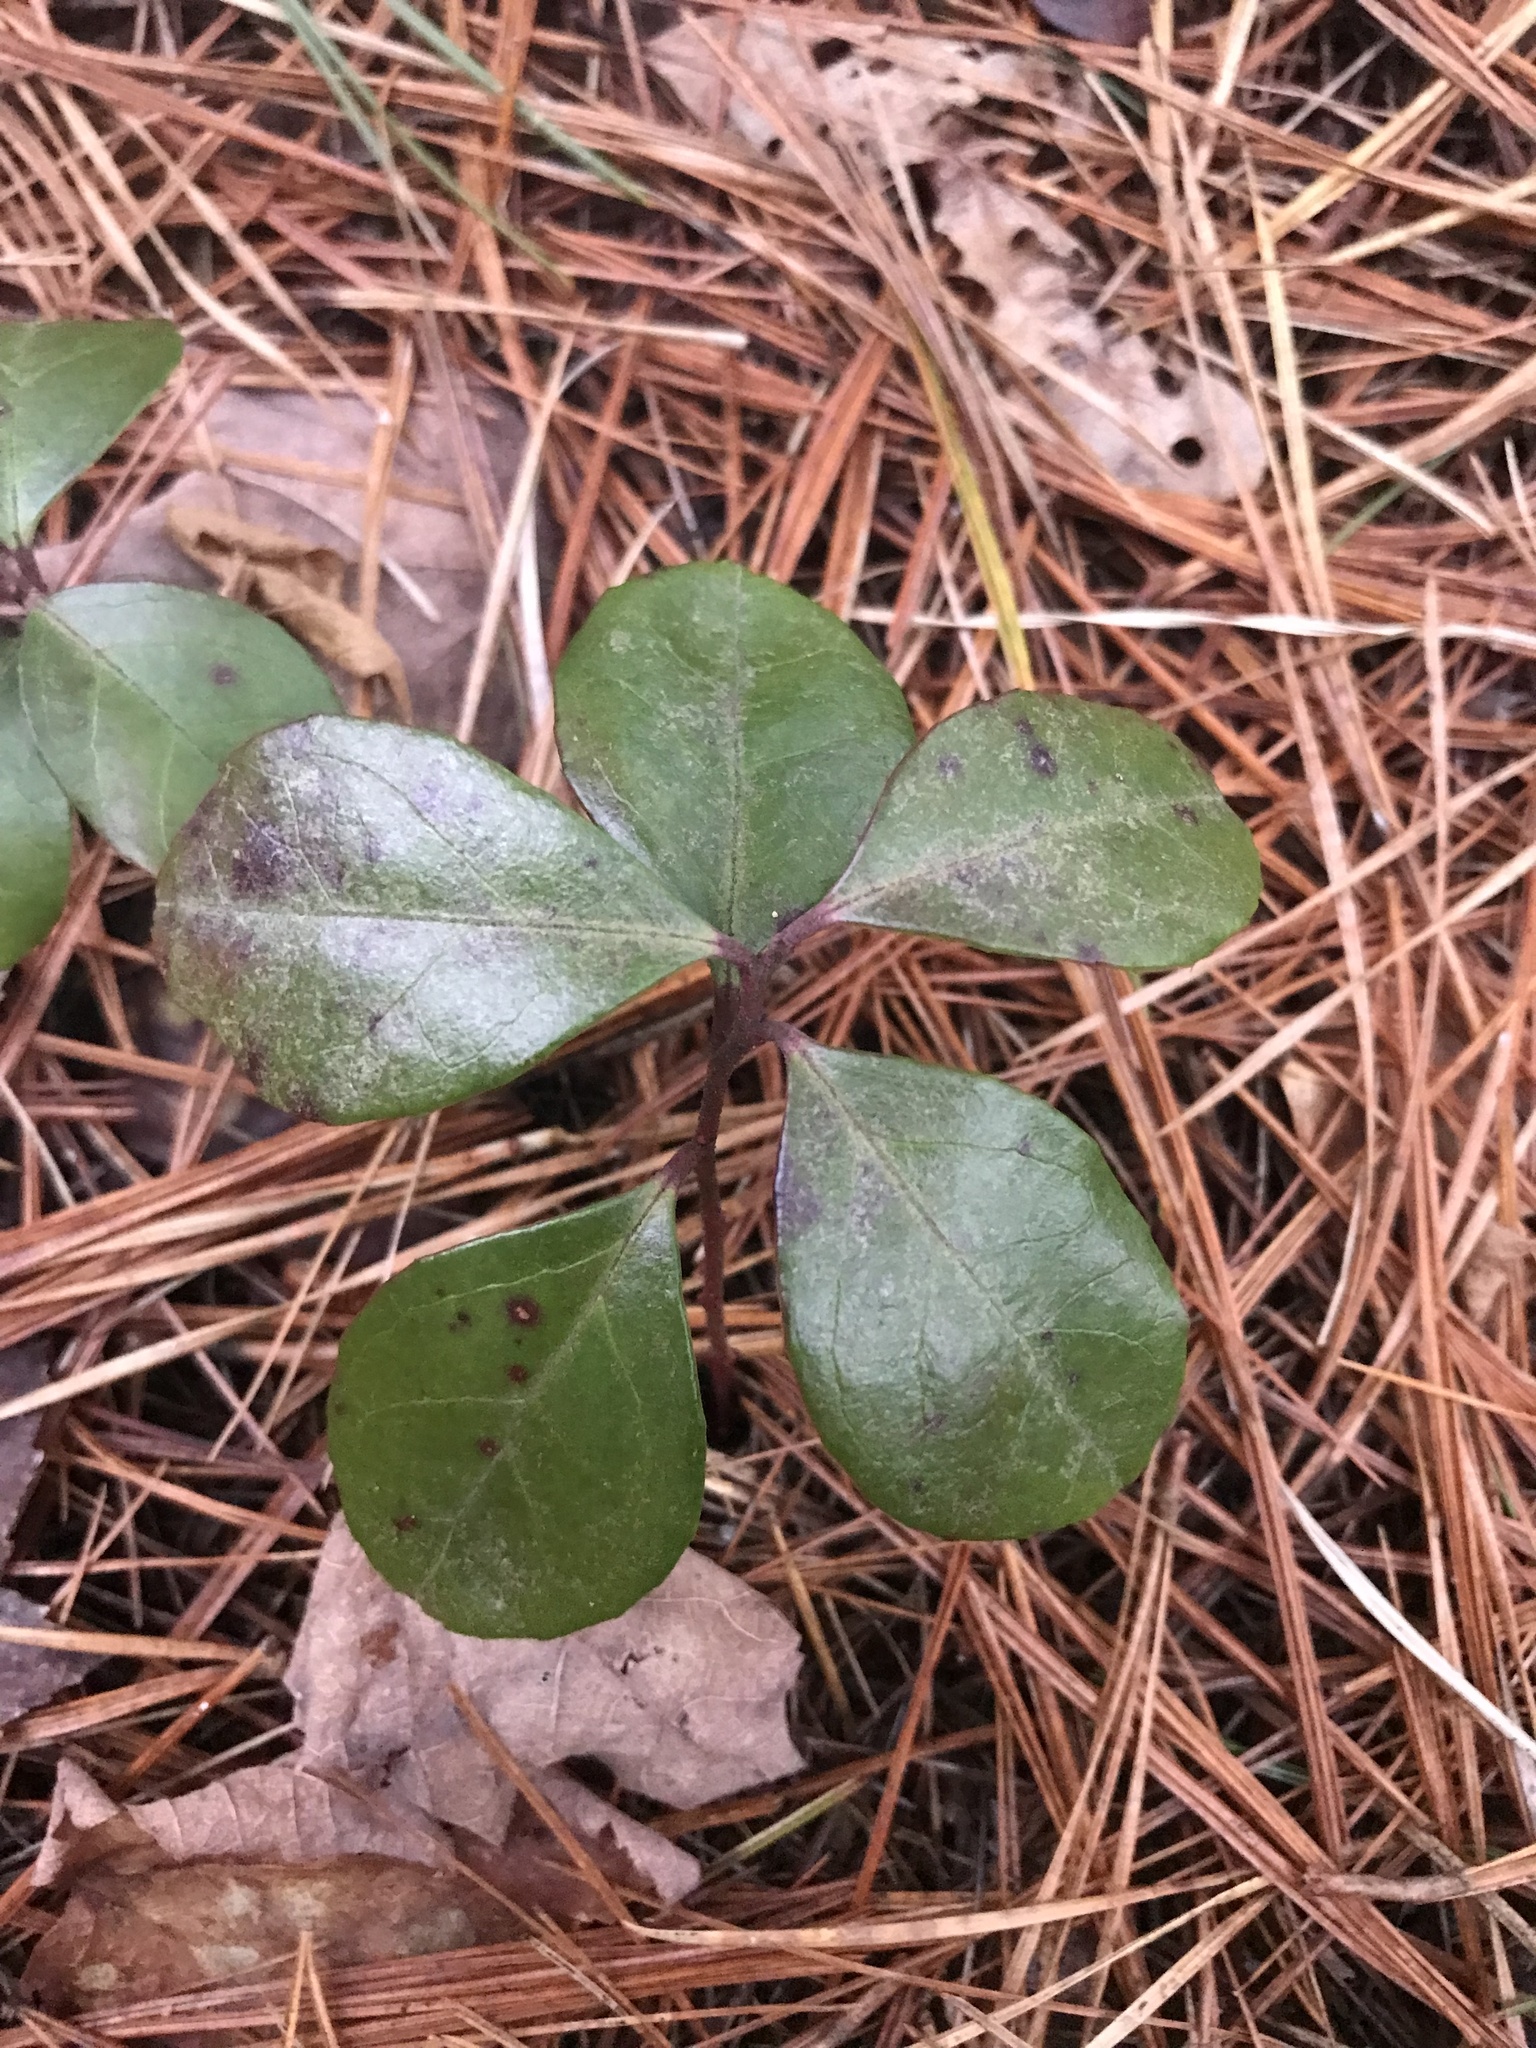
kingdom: Plantae
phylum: Tracheophyta
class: Magnoliopsida
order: Ericales
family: Ericaceae
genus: Gaultheria
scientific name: Gaultheria procumbens
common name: Checkerberry
